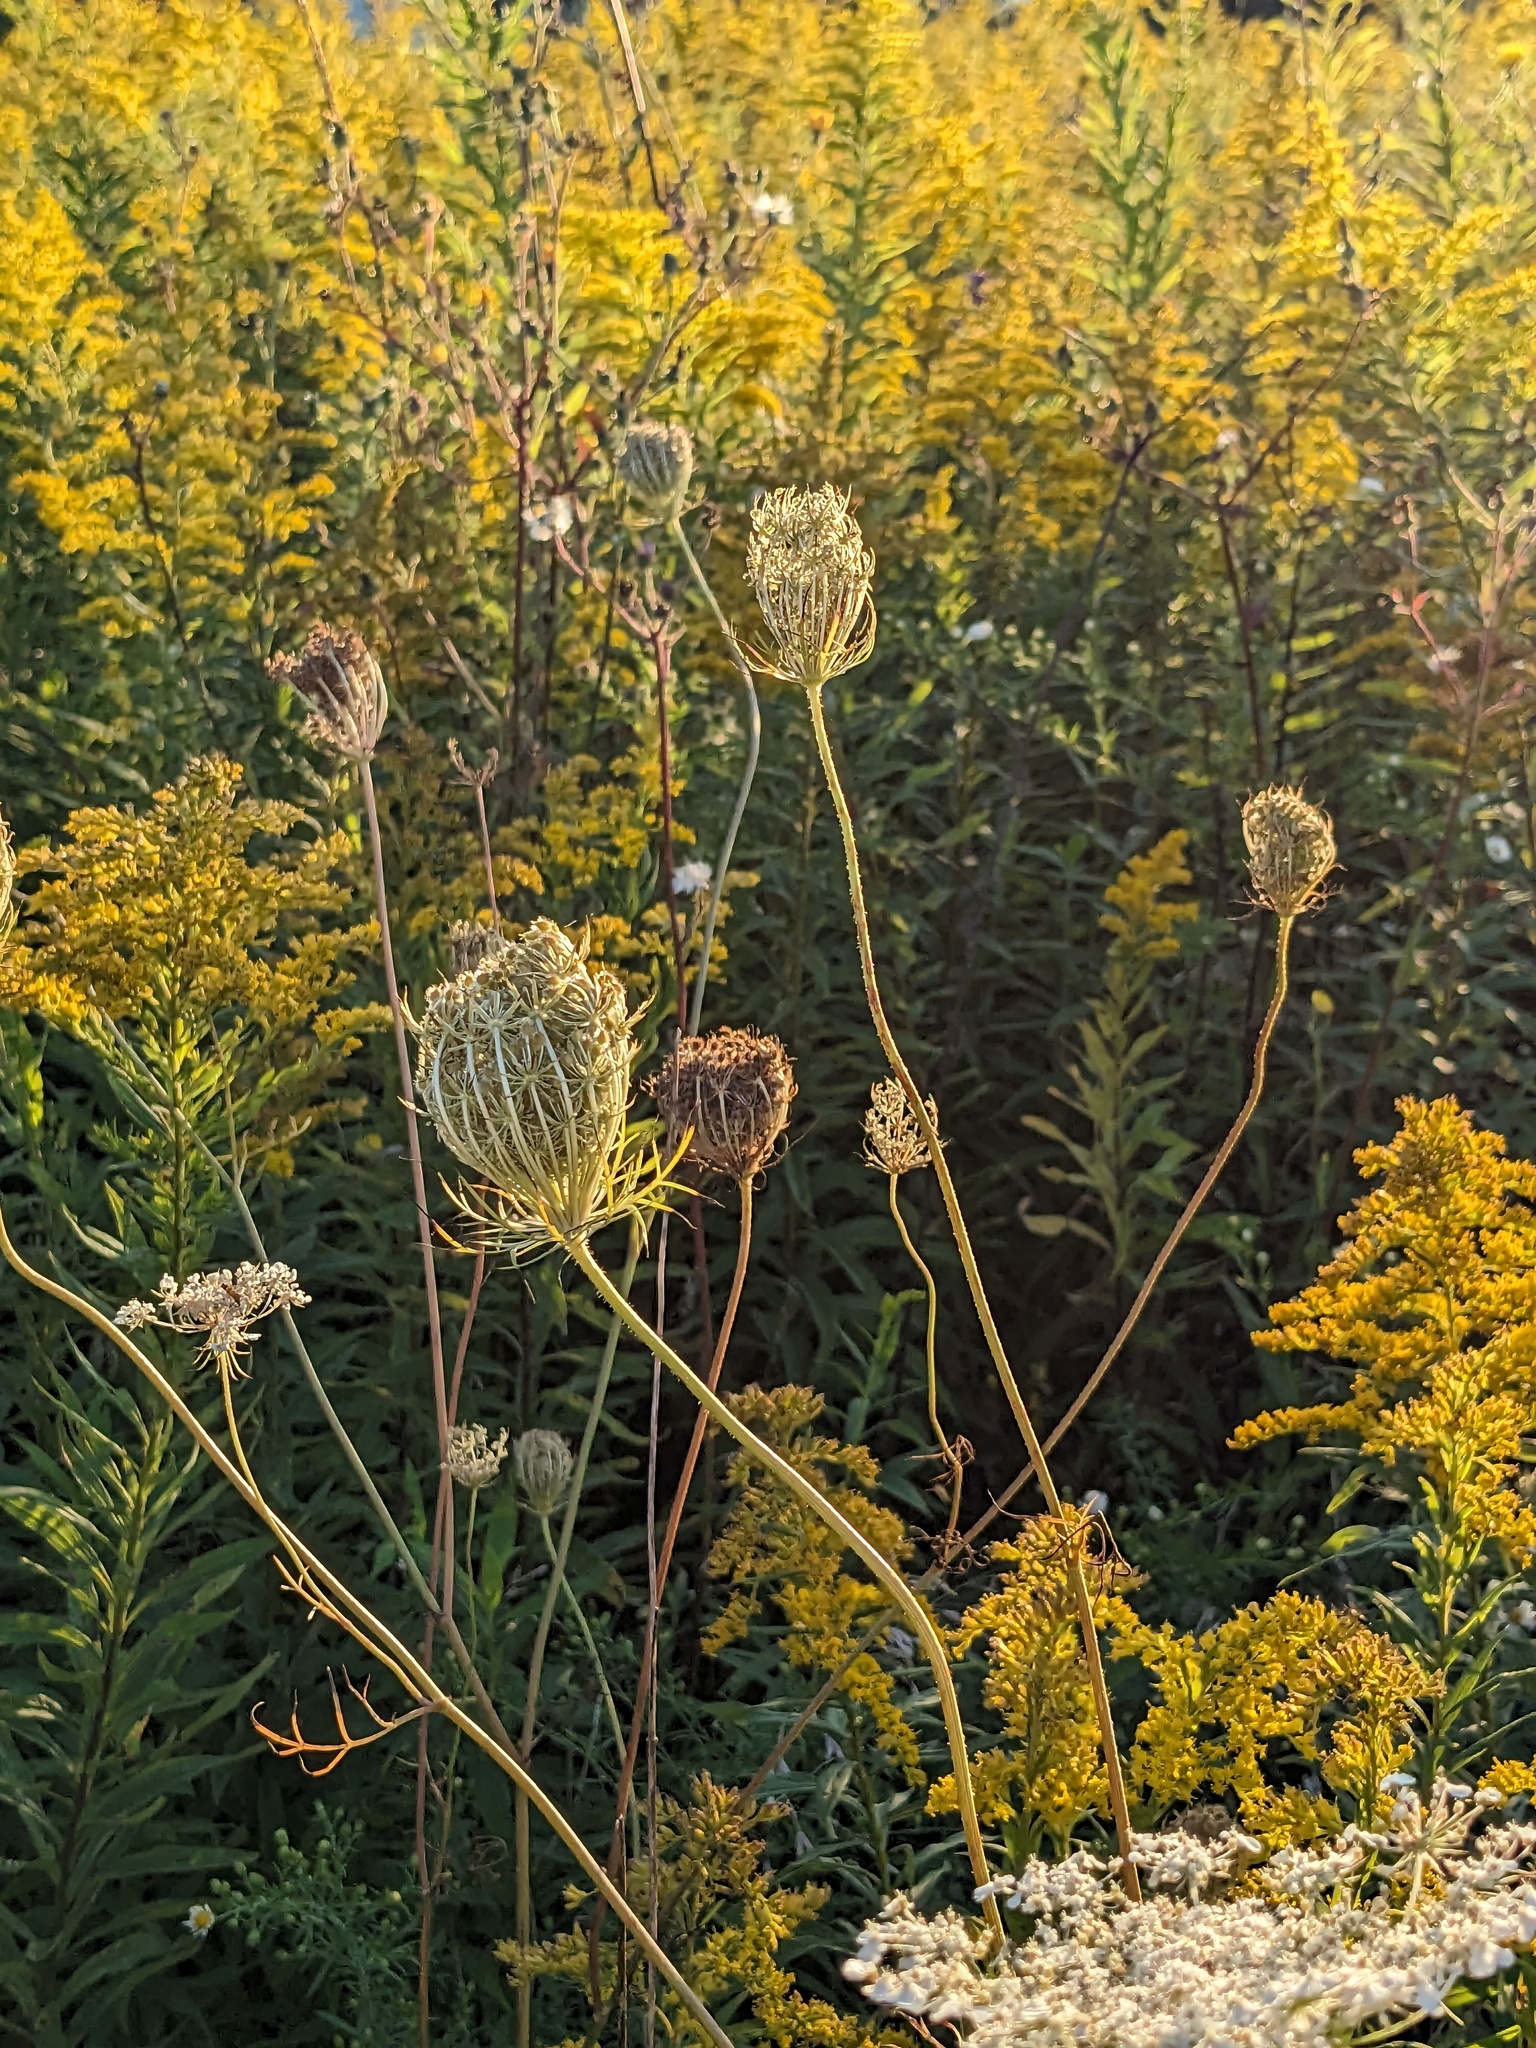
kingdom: Plantae
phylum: Tracheophyta
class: Magnoliopsida
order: Apiales
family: Apiaceae
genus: Daucus
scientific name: Daucus carota
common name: Wild carrot
